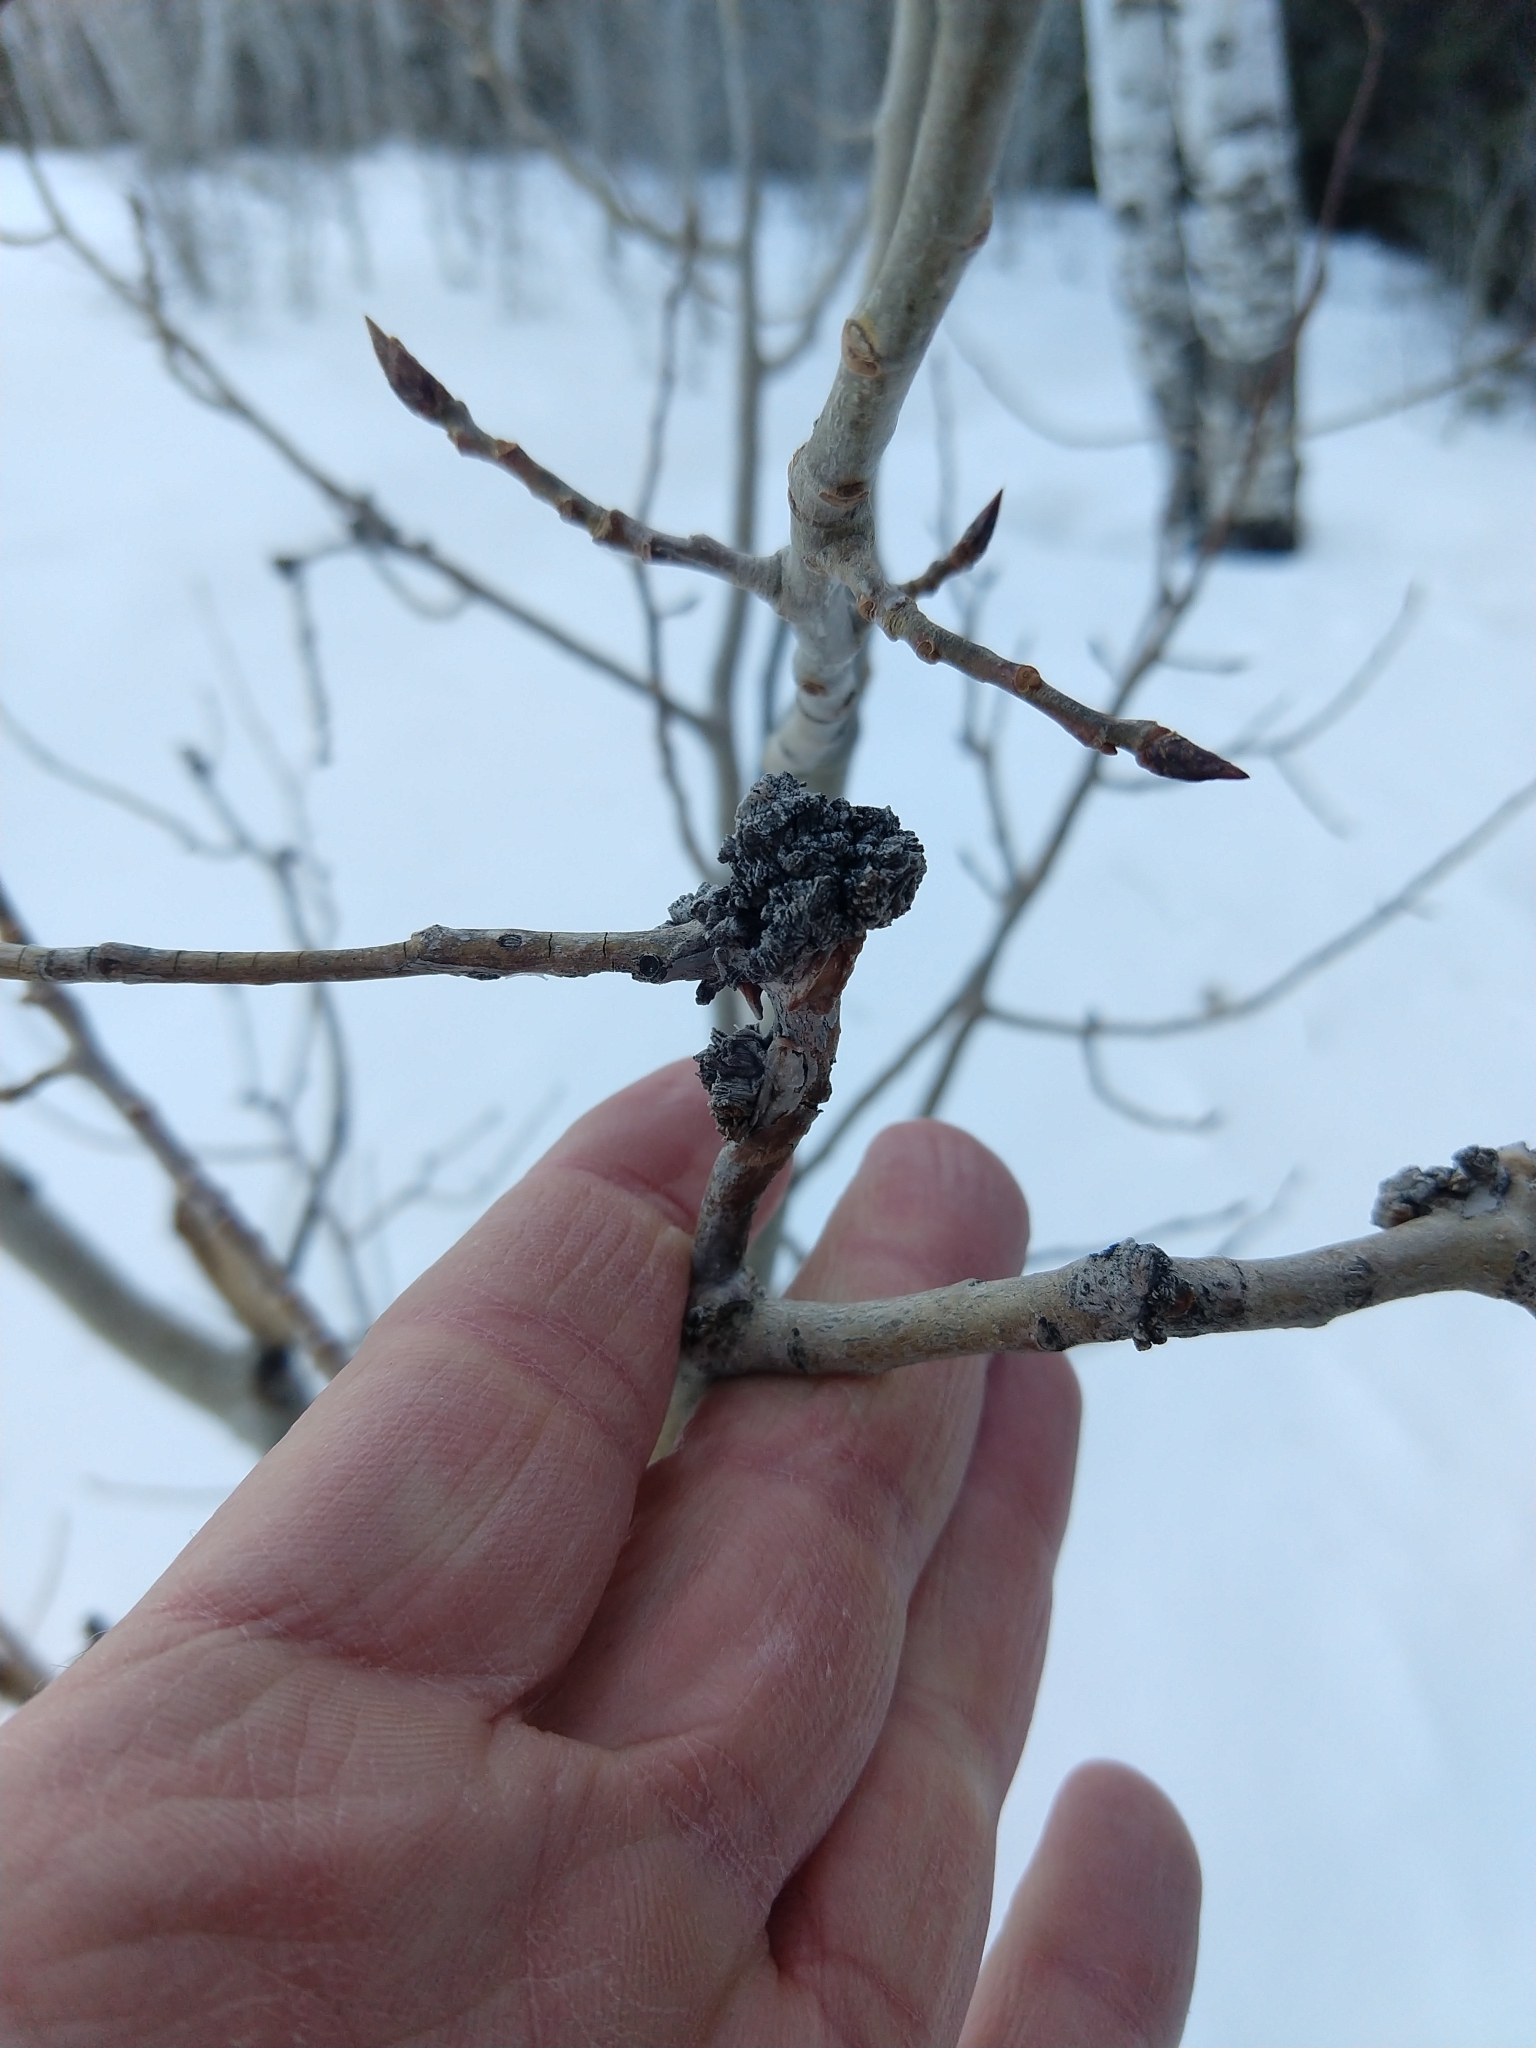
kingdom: Animalia
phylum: Arthropoda
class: Arachnida
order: Trombidiformes
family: Eriophyidae
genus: Aceria
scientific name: Aceria
